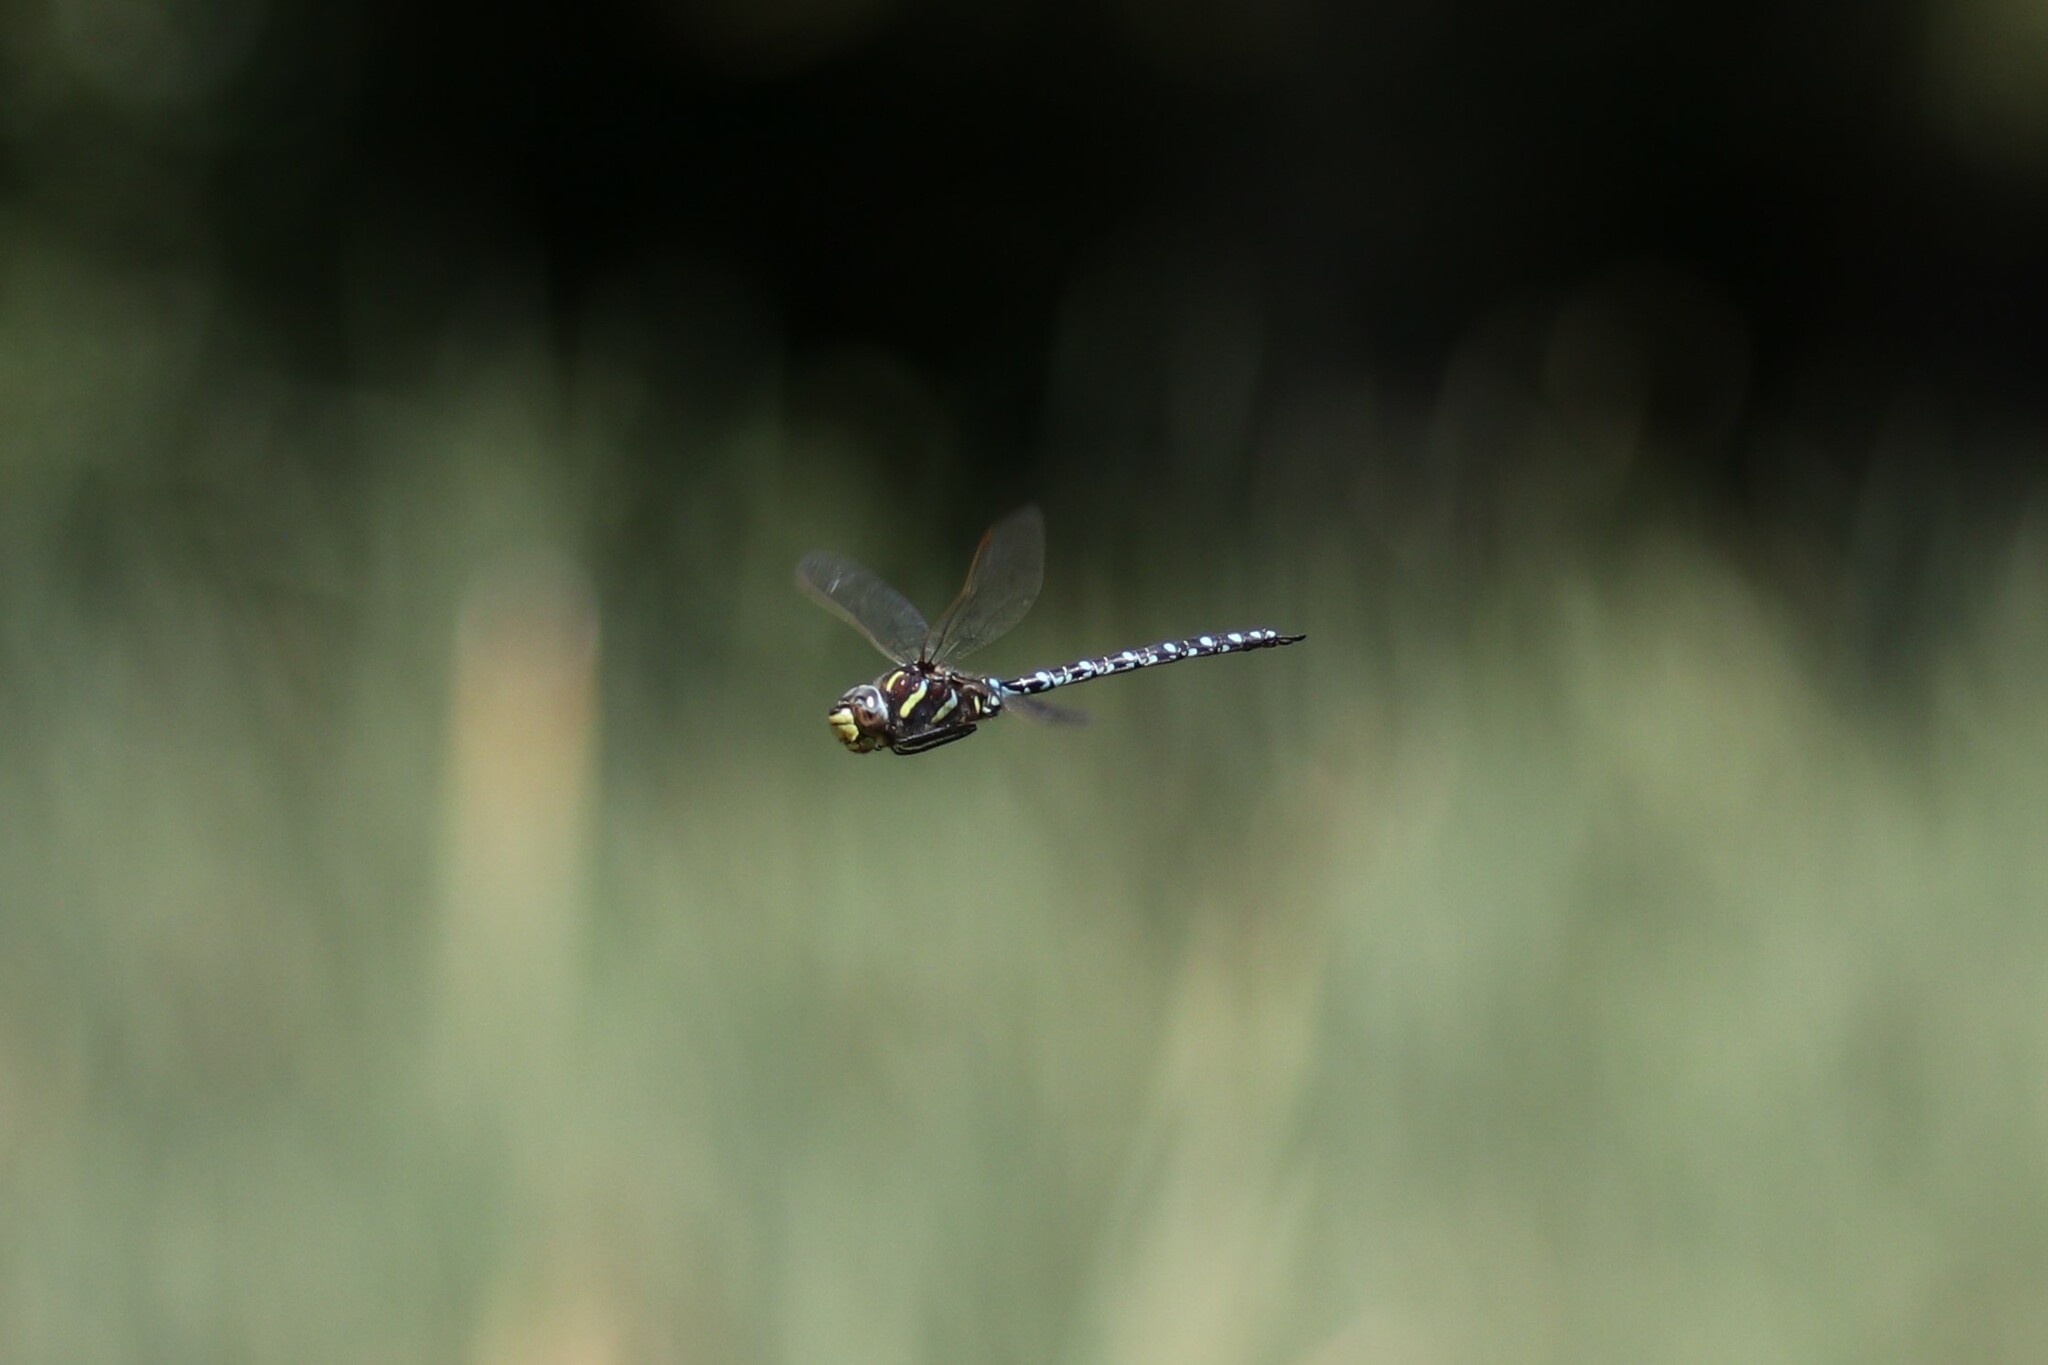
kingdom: Animalia
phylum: Arthropoda
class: Insecta
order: Odonata
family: Aeshnidae
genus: Aeshna
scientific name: Aeshna juncea
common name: Moorland hawker
